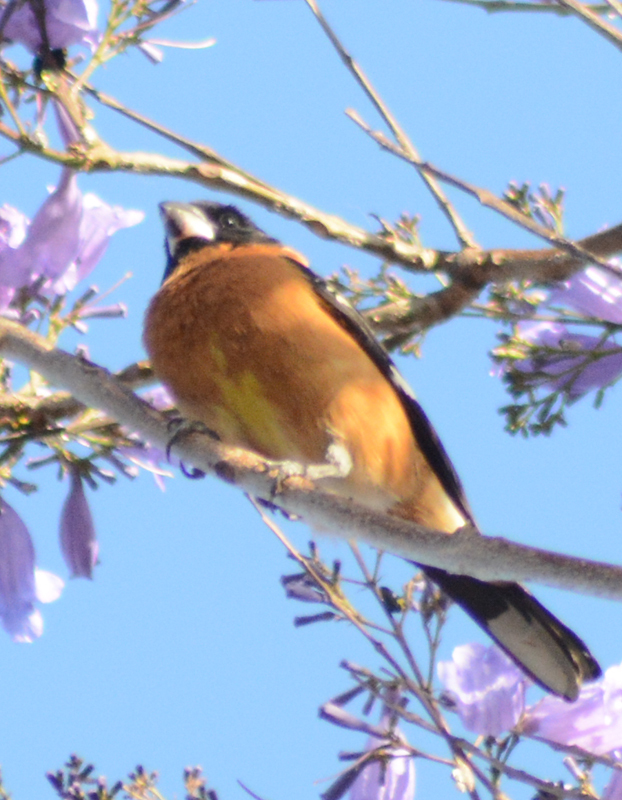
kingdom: Animalia
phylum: Chordata
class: Aves
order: Passeriformes
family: Cardinalidae
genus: Pheucticus
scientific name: Pheucticus melanocephalus
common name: Black-headed grosbeak
